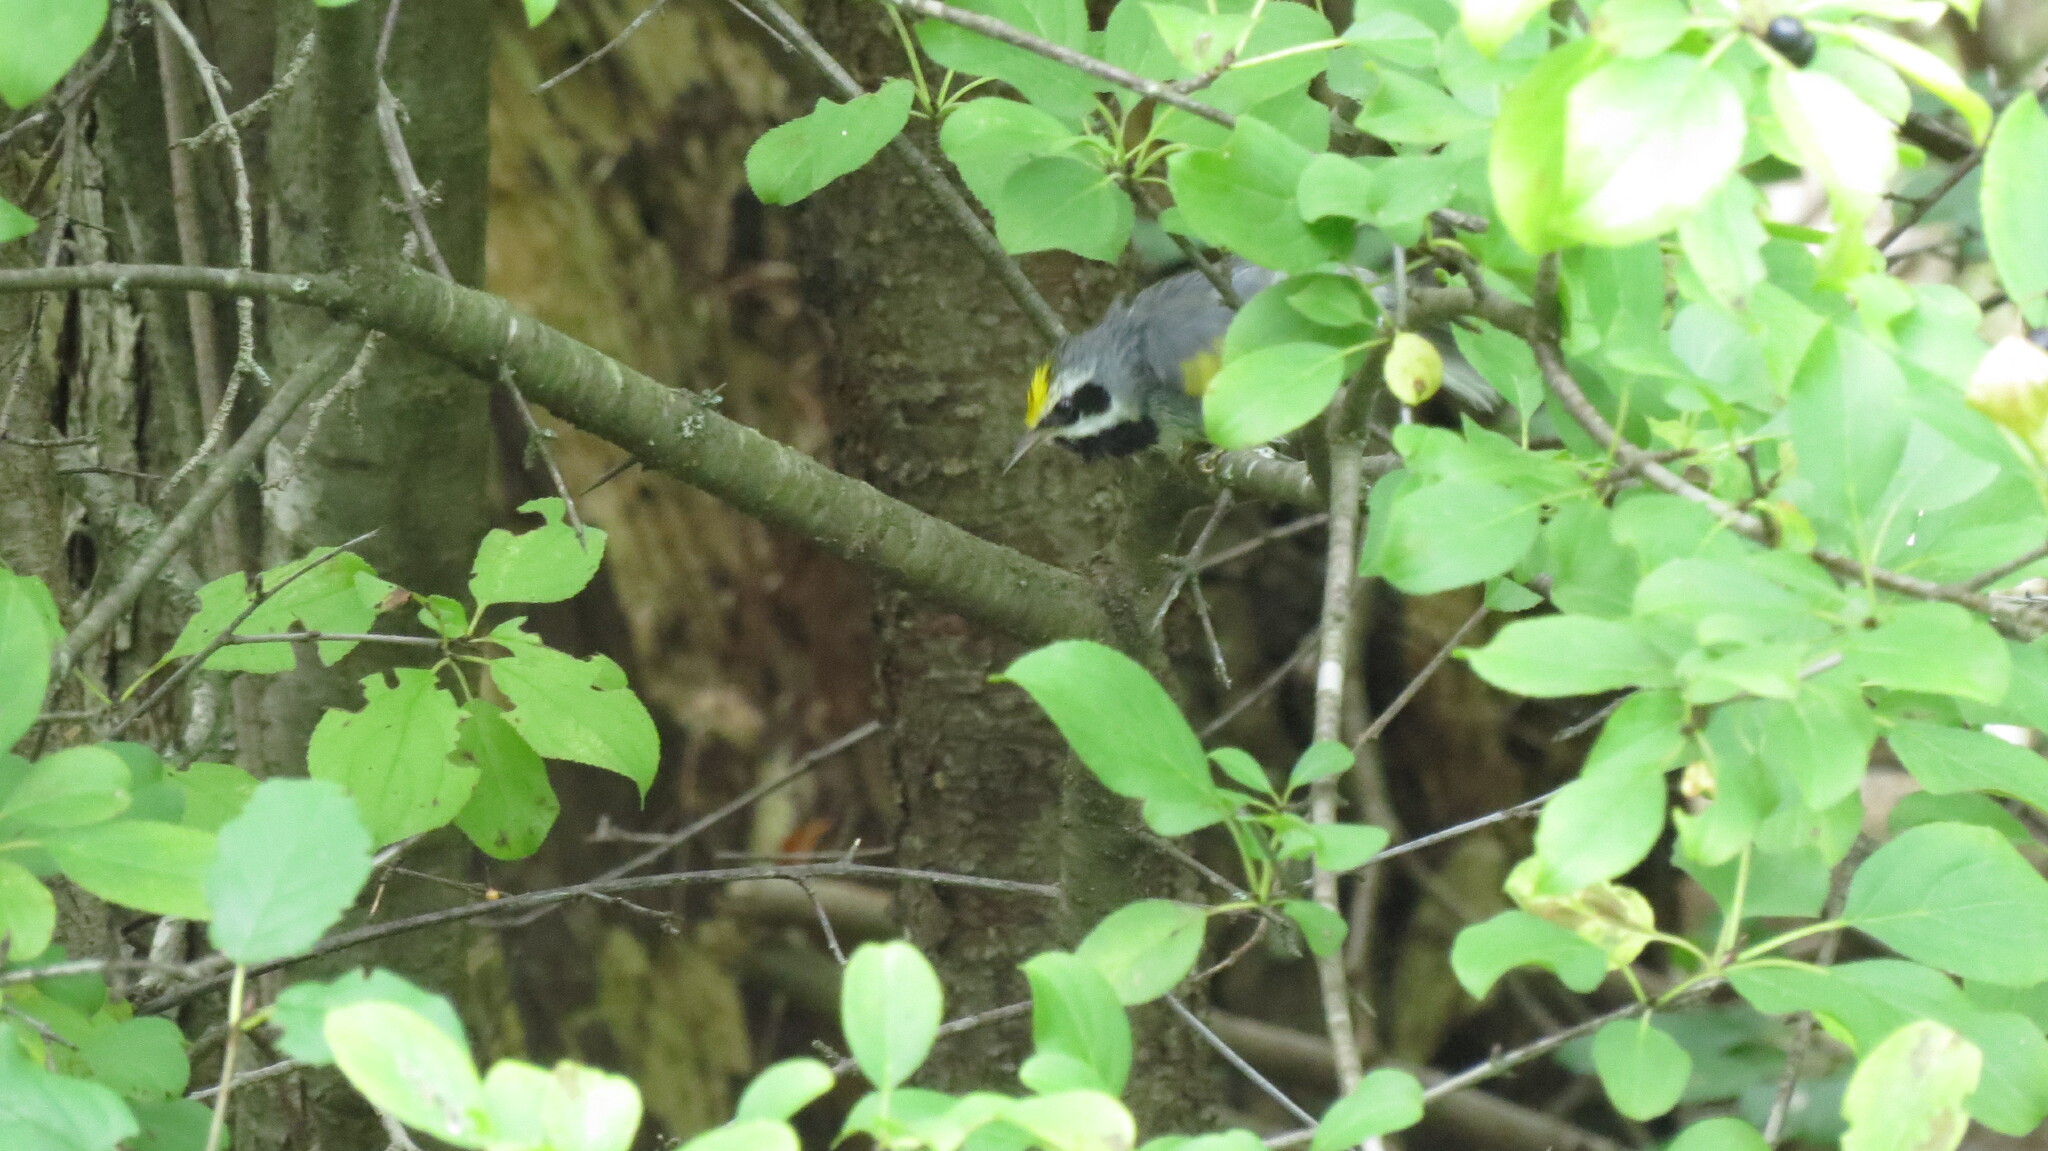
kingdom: Animalia
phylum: Chordata
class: Aves
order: Passeriformes
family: Parulidae
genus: Vermivora
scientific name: Vermivora chrysoptera
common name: Golden-winged warbler
